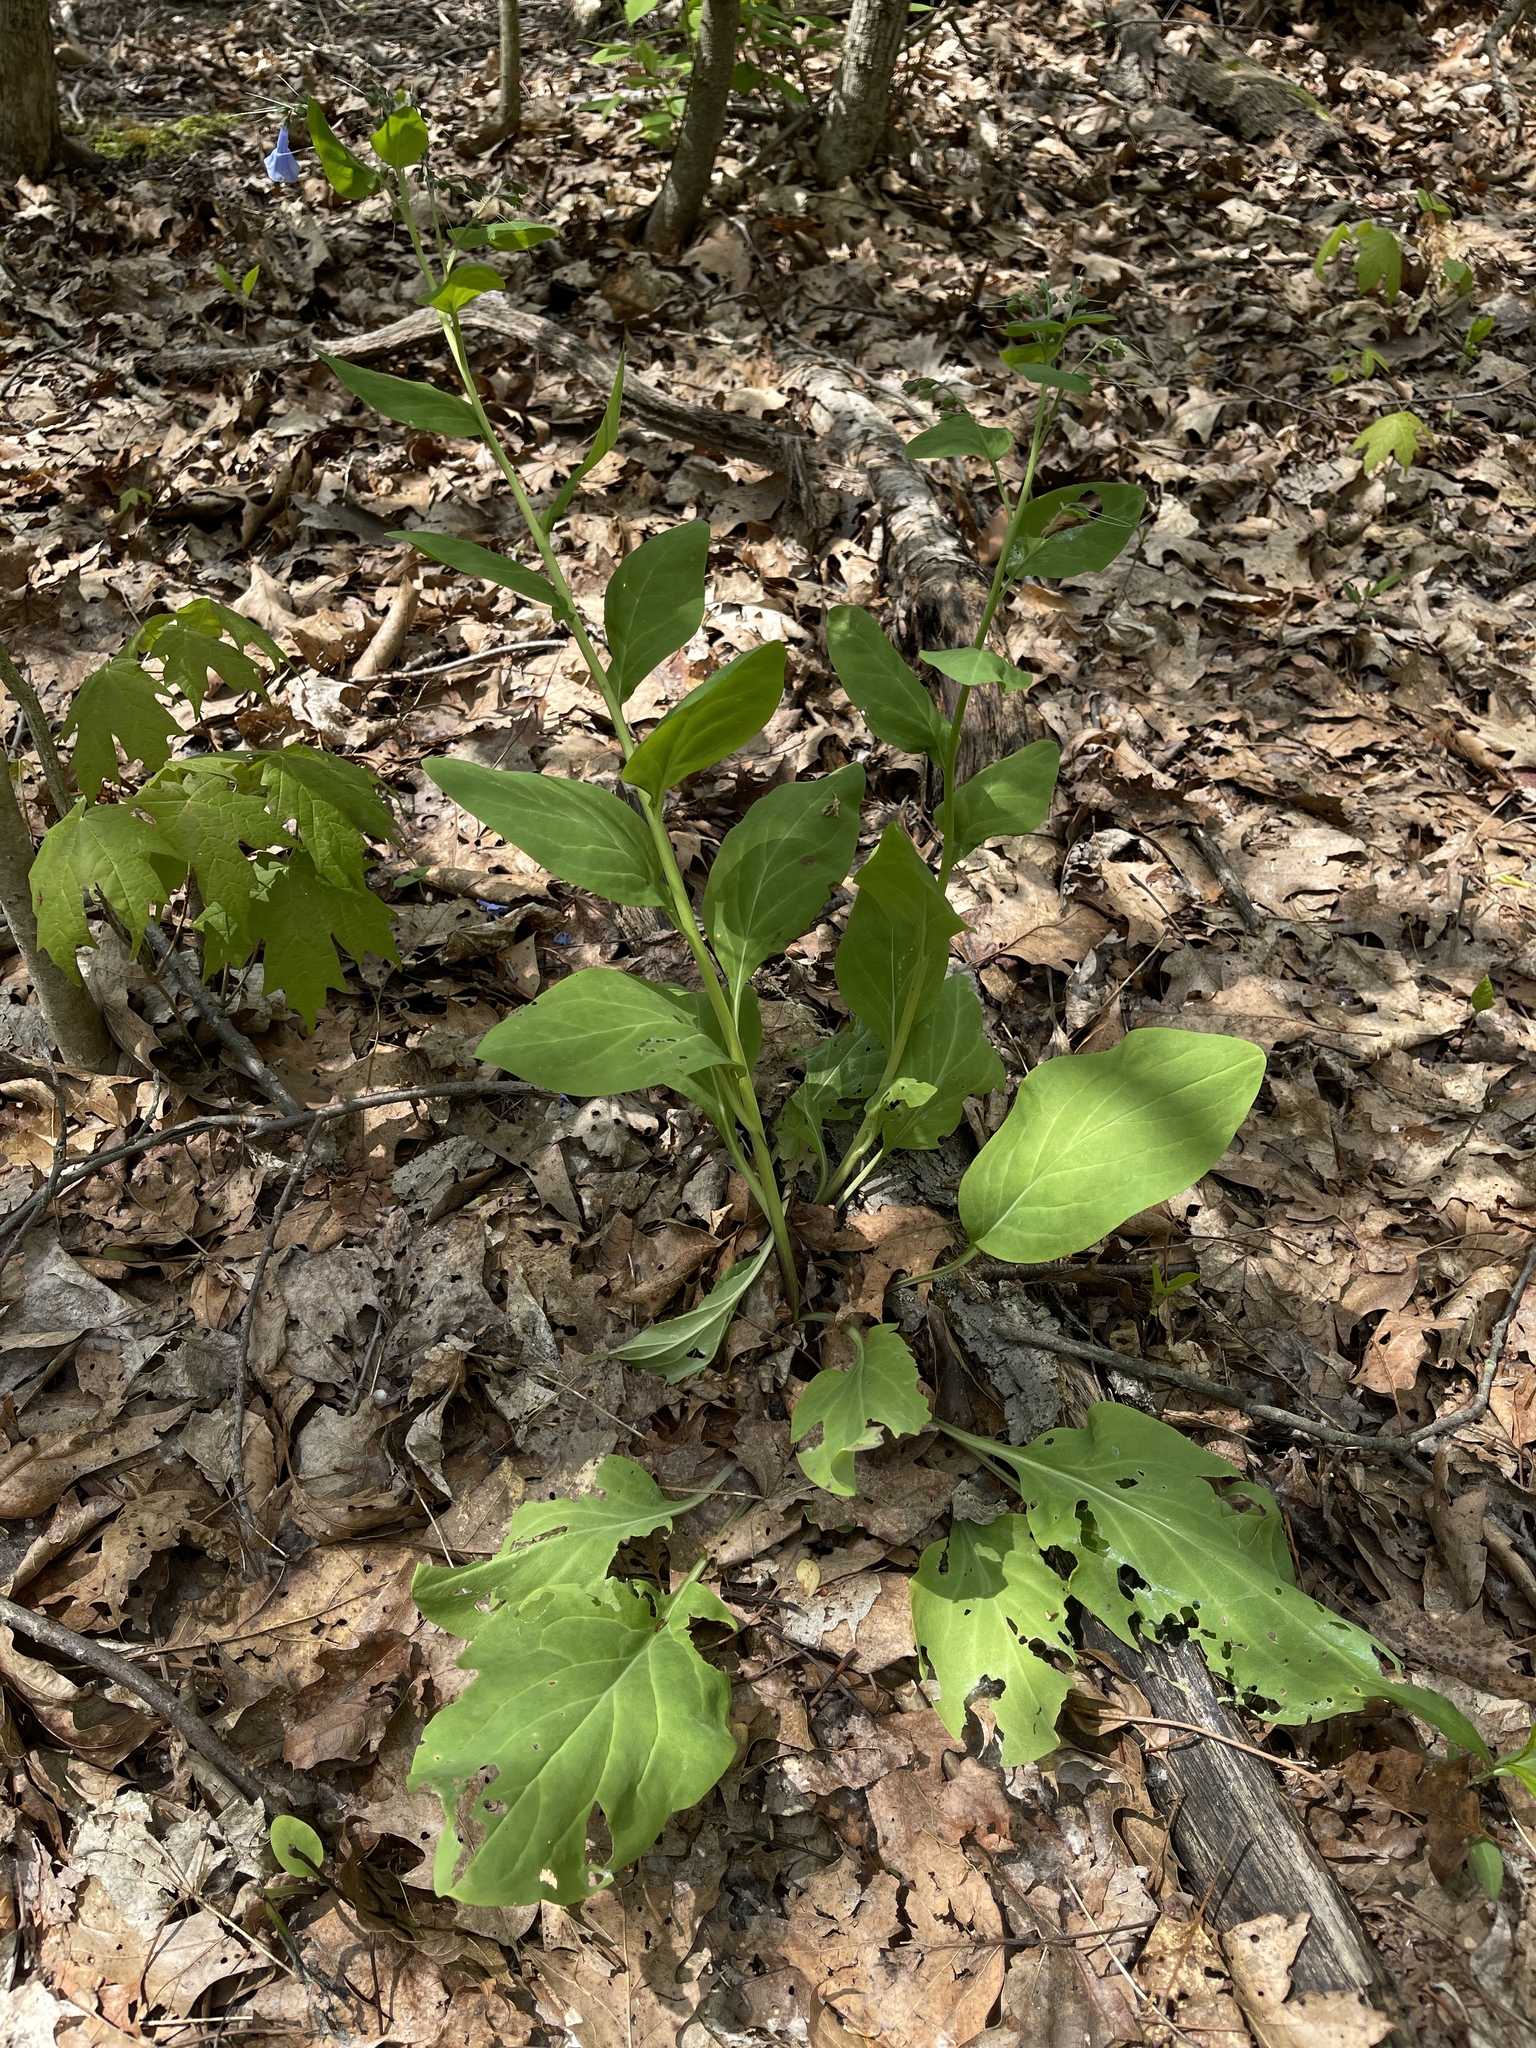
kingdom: Plantae
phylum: Tracheophyta
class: Magnoliopsida
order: Boraginales
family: Boraginaceae
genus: Mertensia
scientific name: Mertensia virginica
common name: Virginia bluebells
